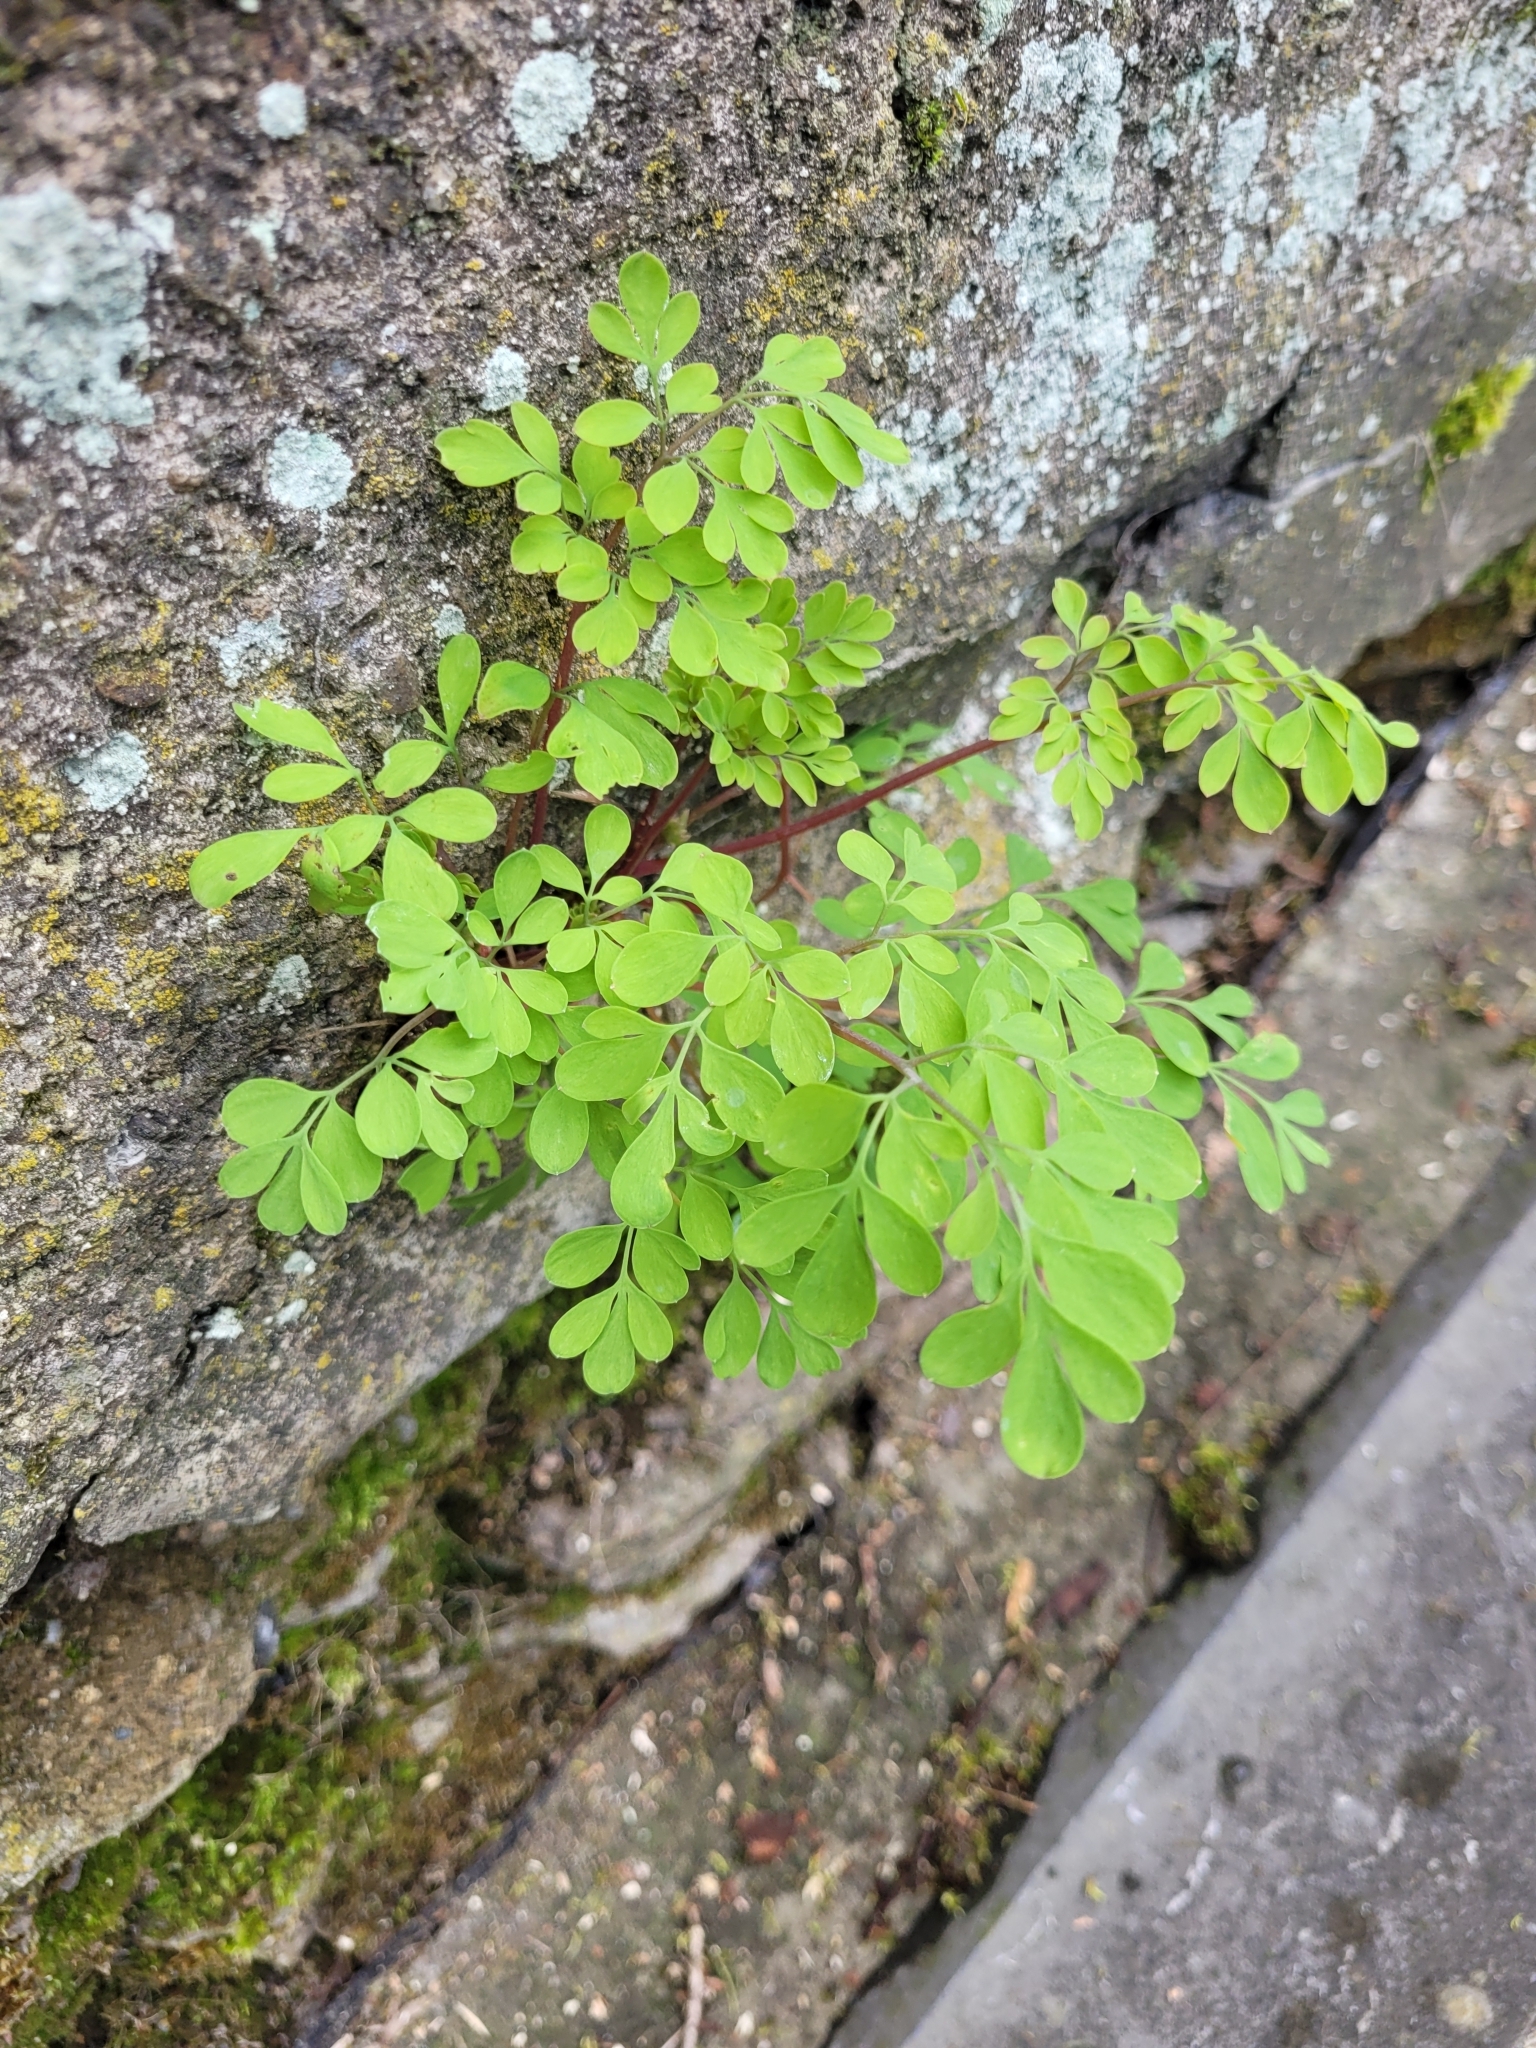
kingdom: Plantae
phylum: Tracheophyta
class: Magnoliopsida
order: Ranunculales
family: Papaveraceae
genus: Pseudofumaria
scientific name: Pseudofumaria lutea
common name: Yellow corydalis
